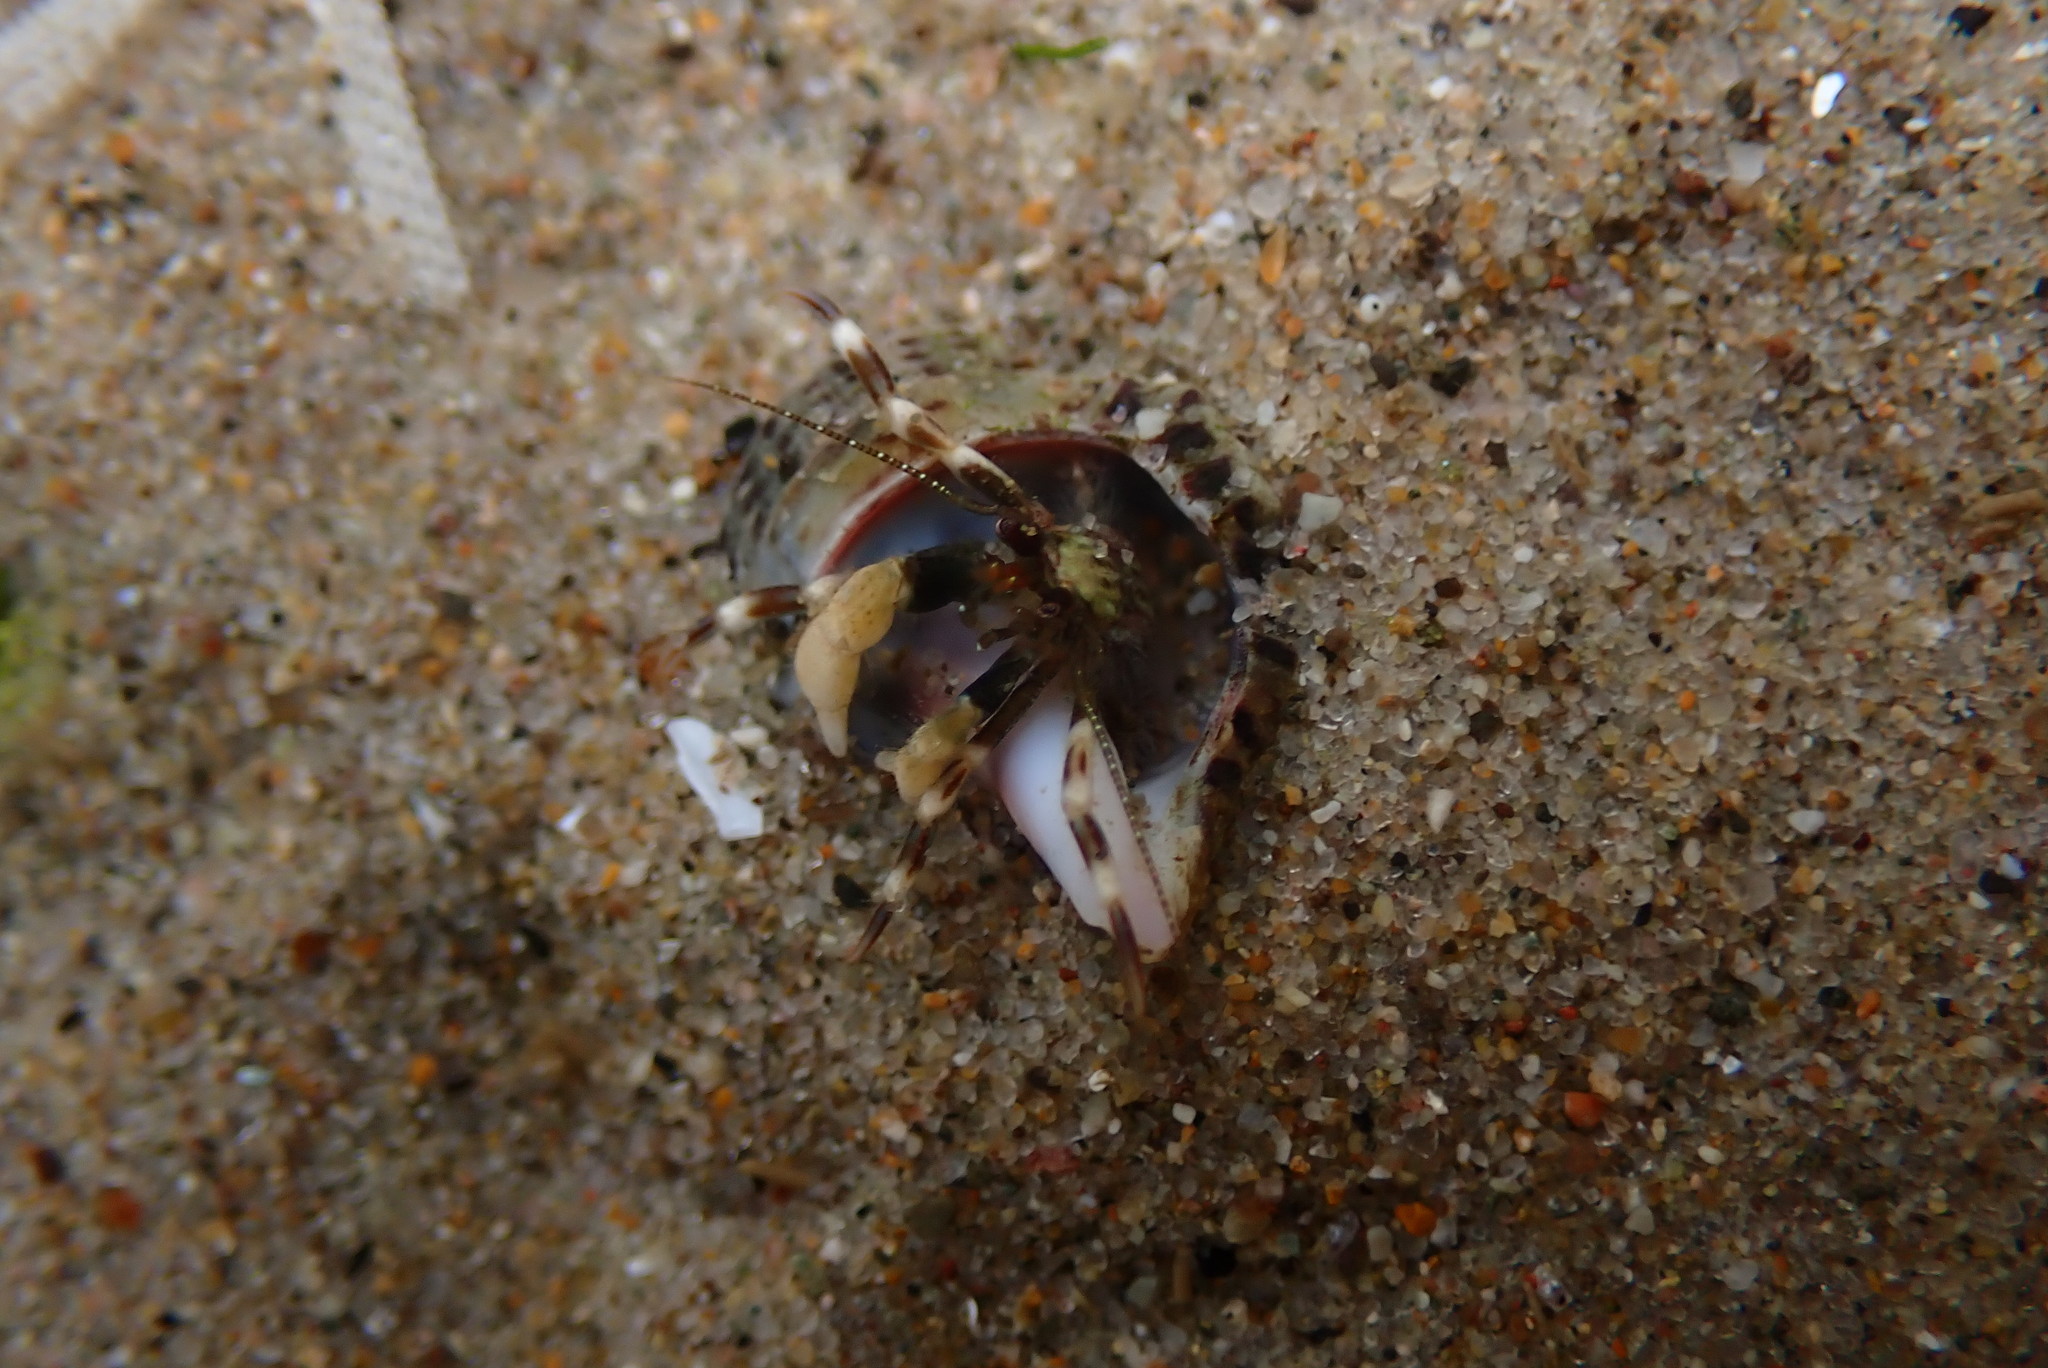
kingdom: Animalia
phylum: Arthropoda
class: Malacostraca
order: Decapoda
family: Paguridae
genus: Pagurus
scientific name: Pagurus venturensis
